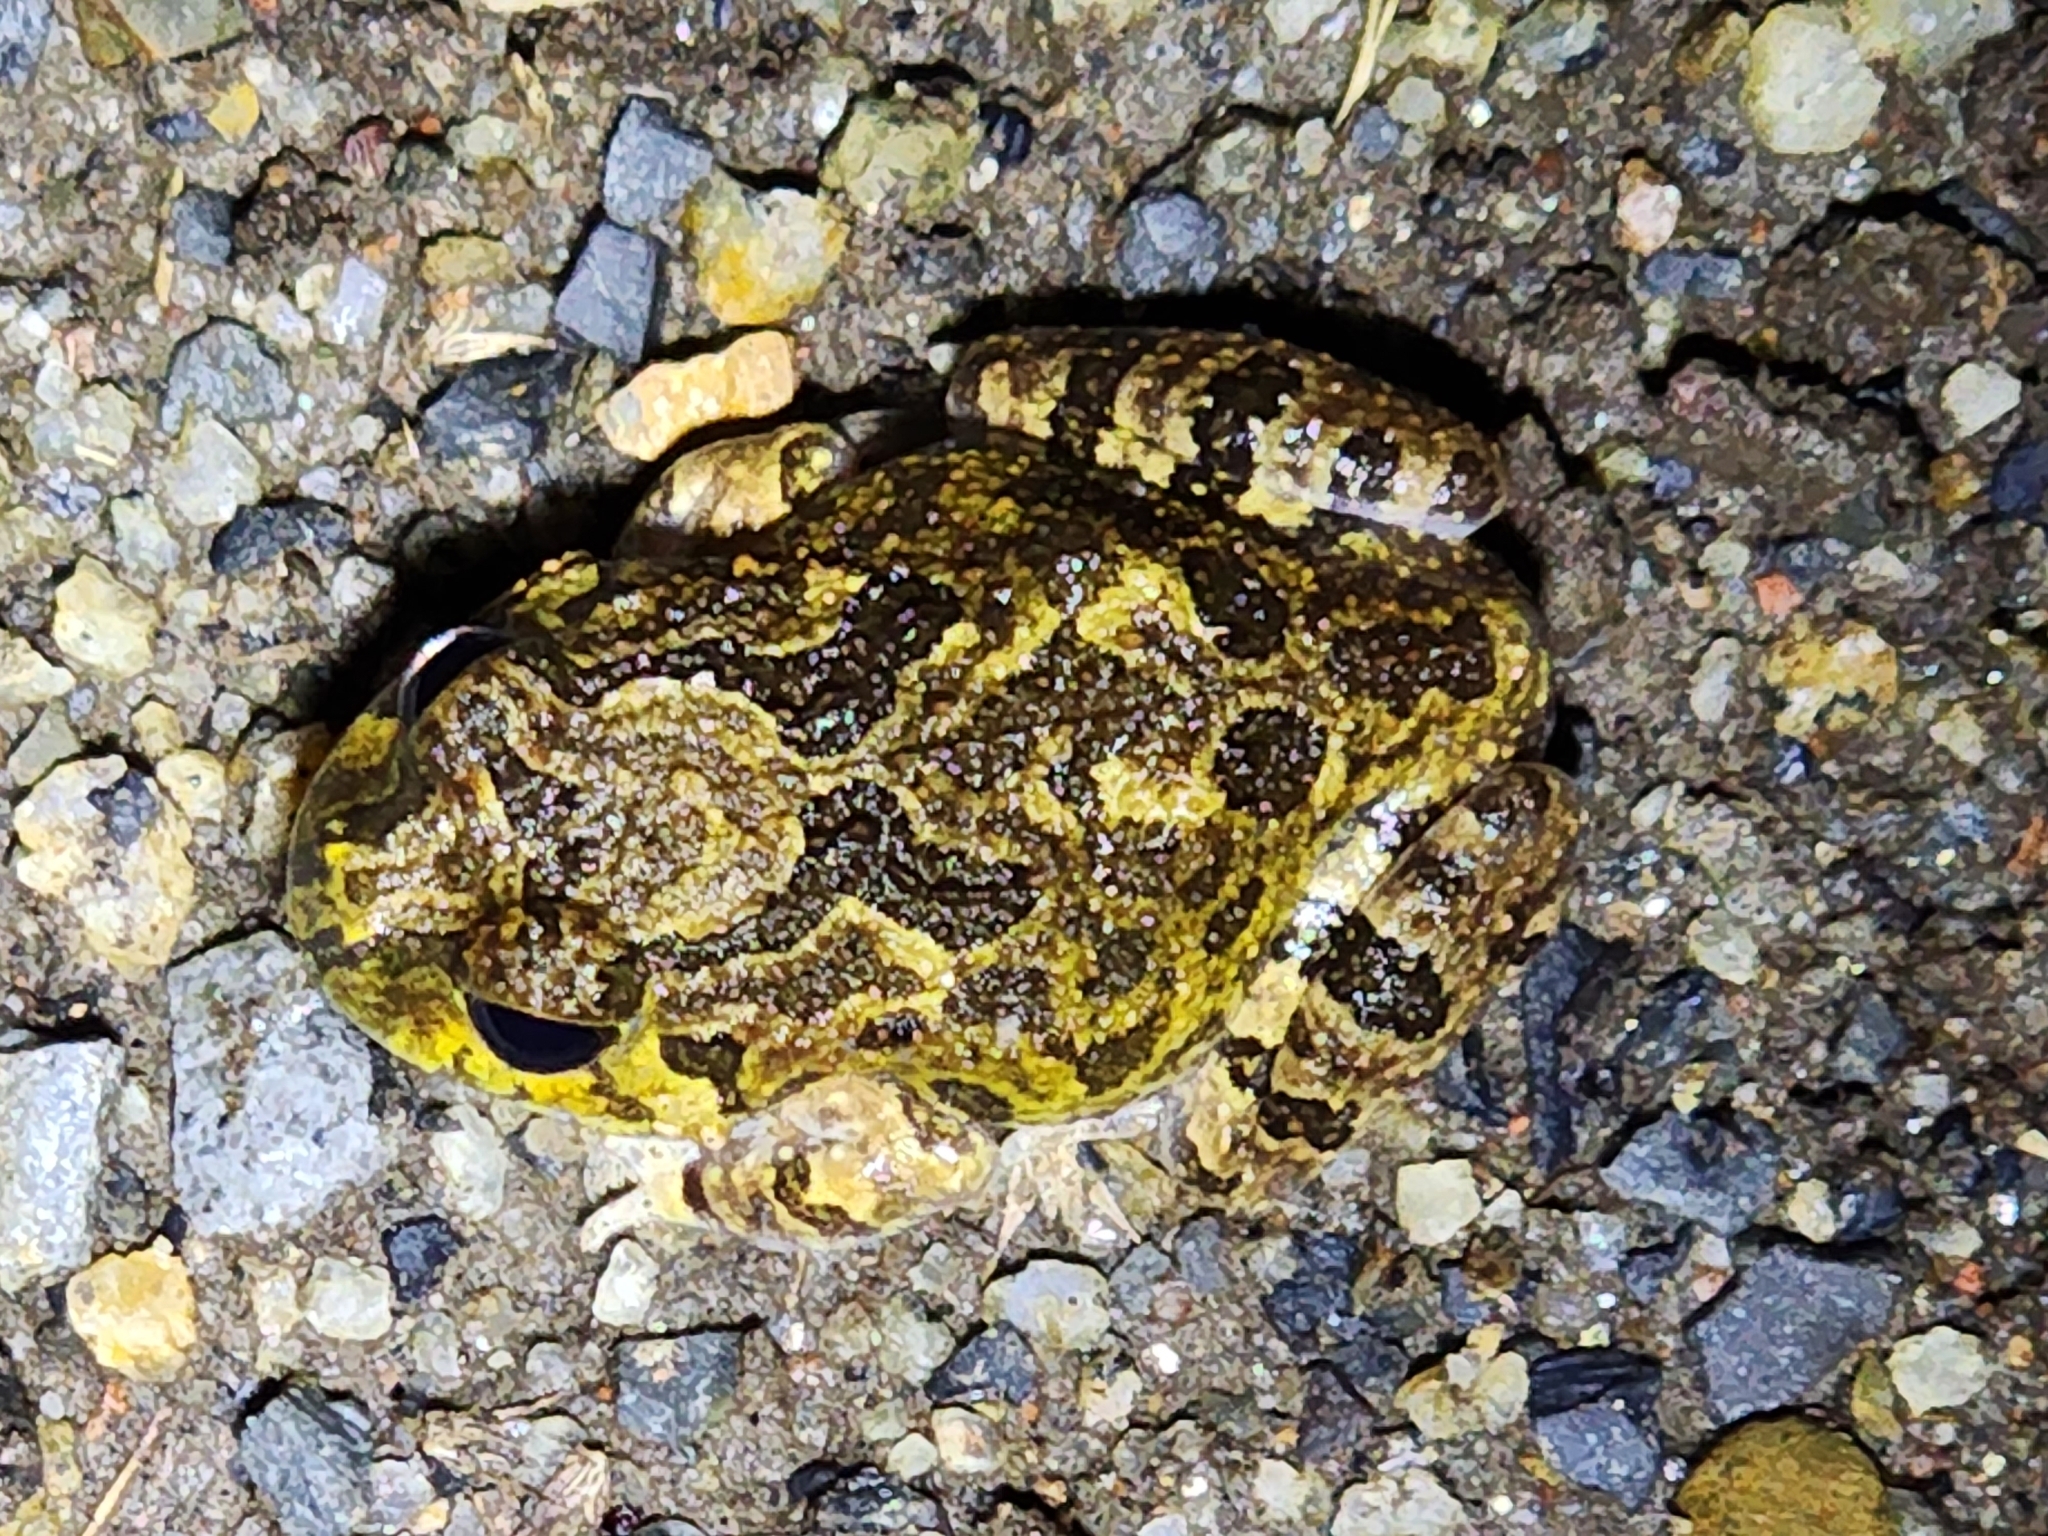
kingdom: Animalia
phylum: Chordata
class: Amphibia
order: Anura
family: Limnodynastidae
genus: Platyplectrum
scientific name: Platyplectrum ornatum
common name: Ornate burrowing frog
